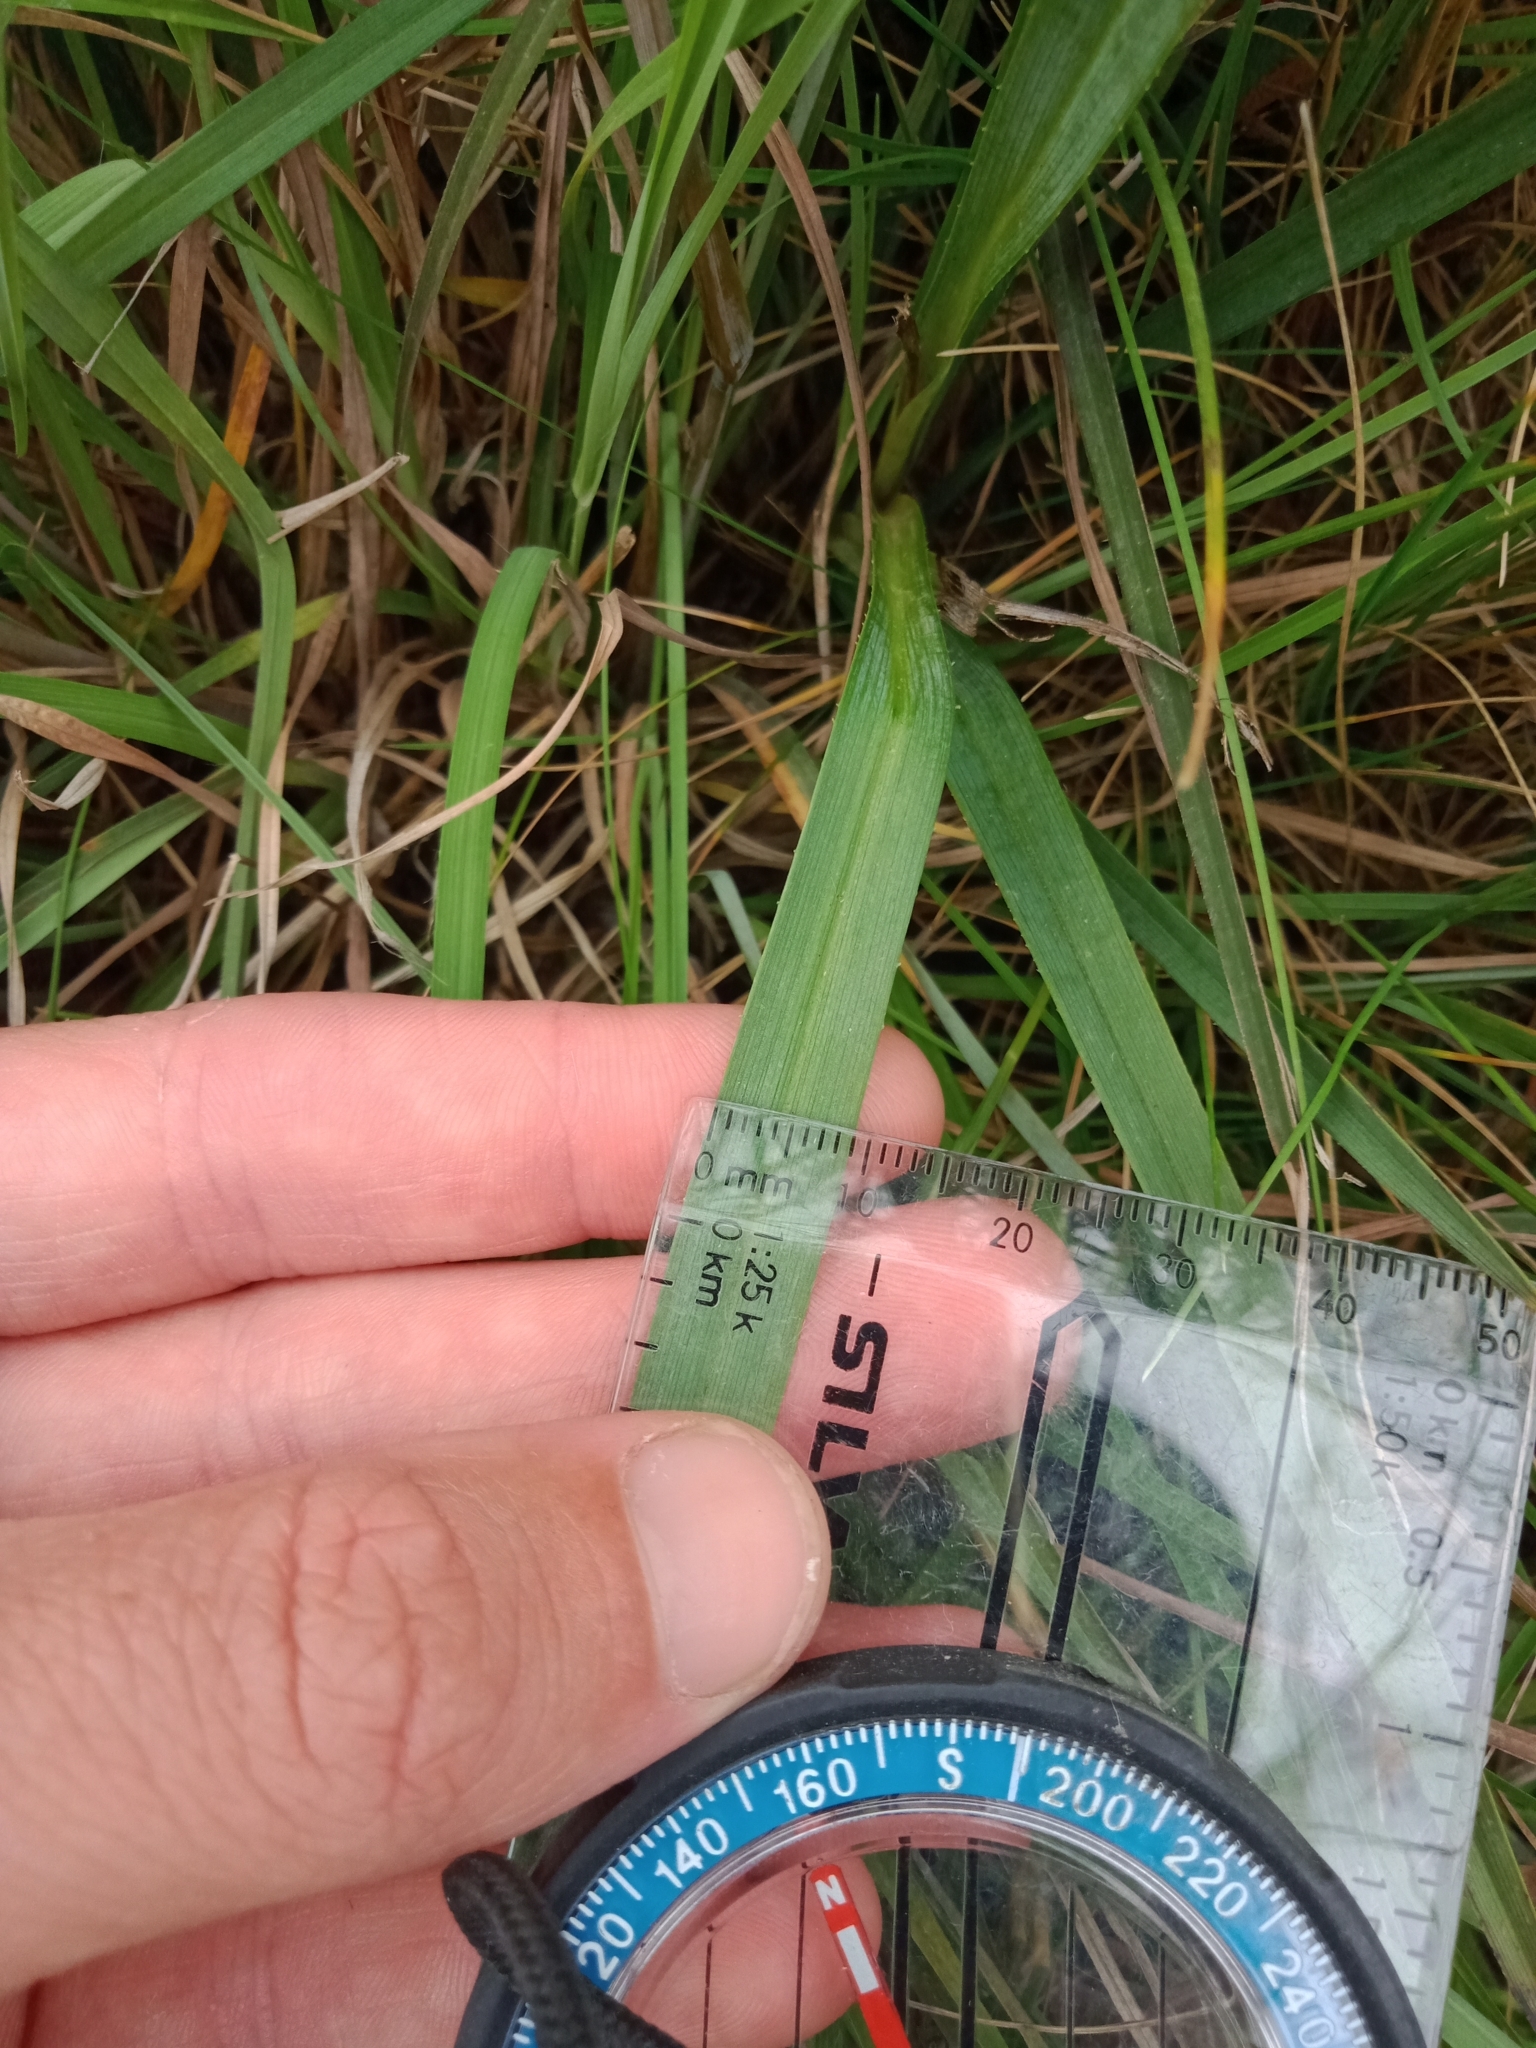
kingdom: Plantae
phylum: Tracheophyta
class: Liliopsida
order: Asparagales
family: Asphodelaceae
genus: Dianella
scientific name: Dianella amoena
